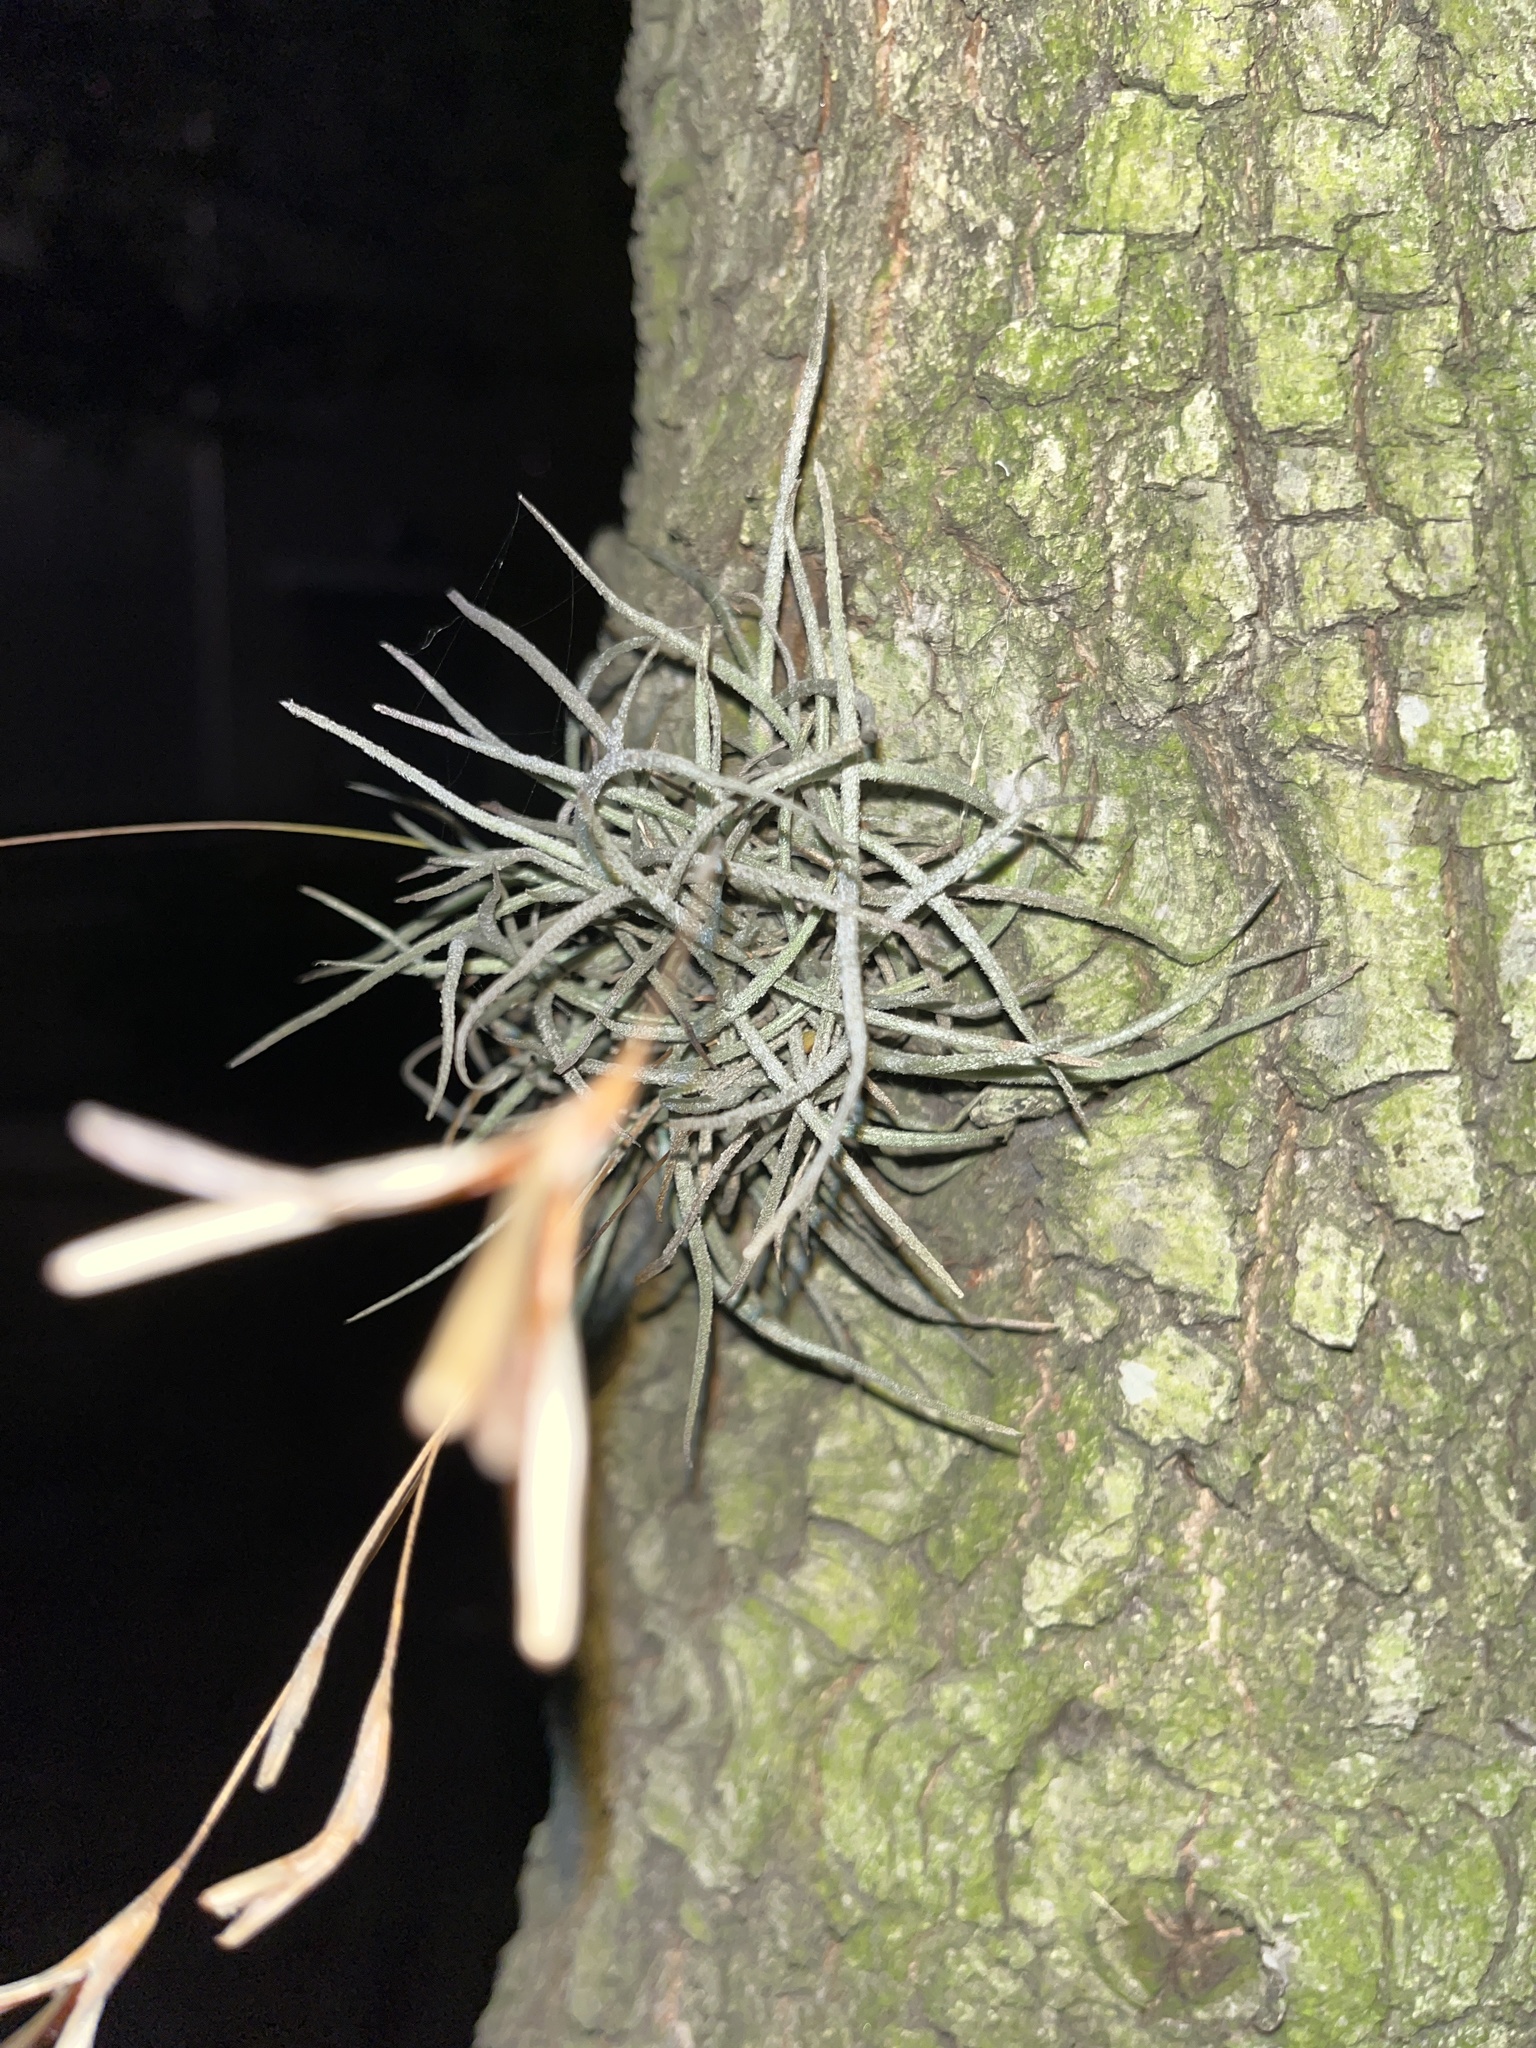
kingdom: Plantae
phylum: Tracheophyta
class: Liliopsida
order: Poales
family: Bromeliaceae
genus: Tillandsia
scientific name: Tillandsia recurvata
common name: Small ballmoss
